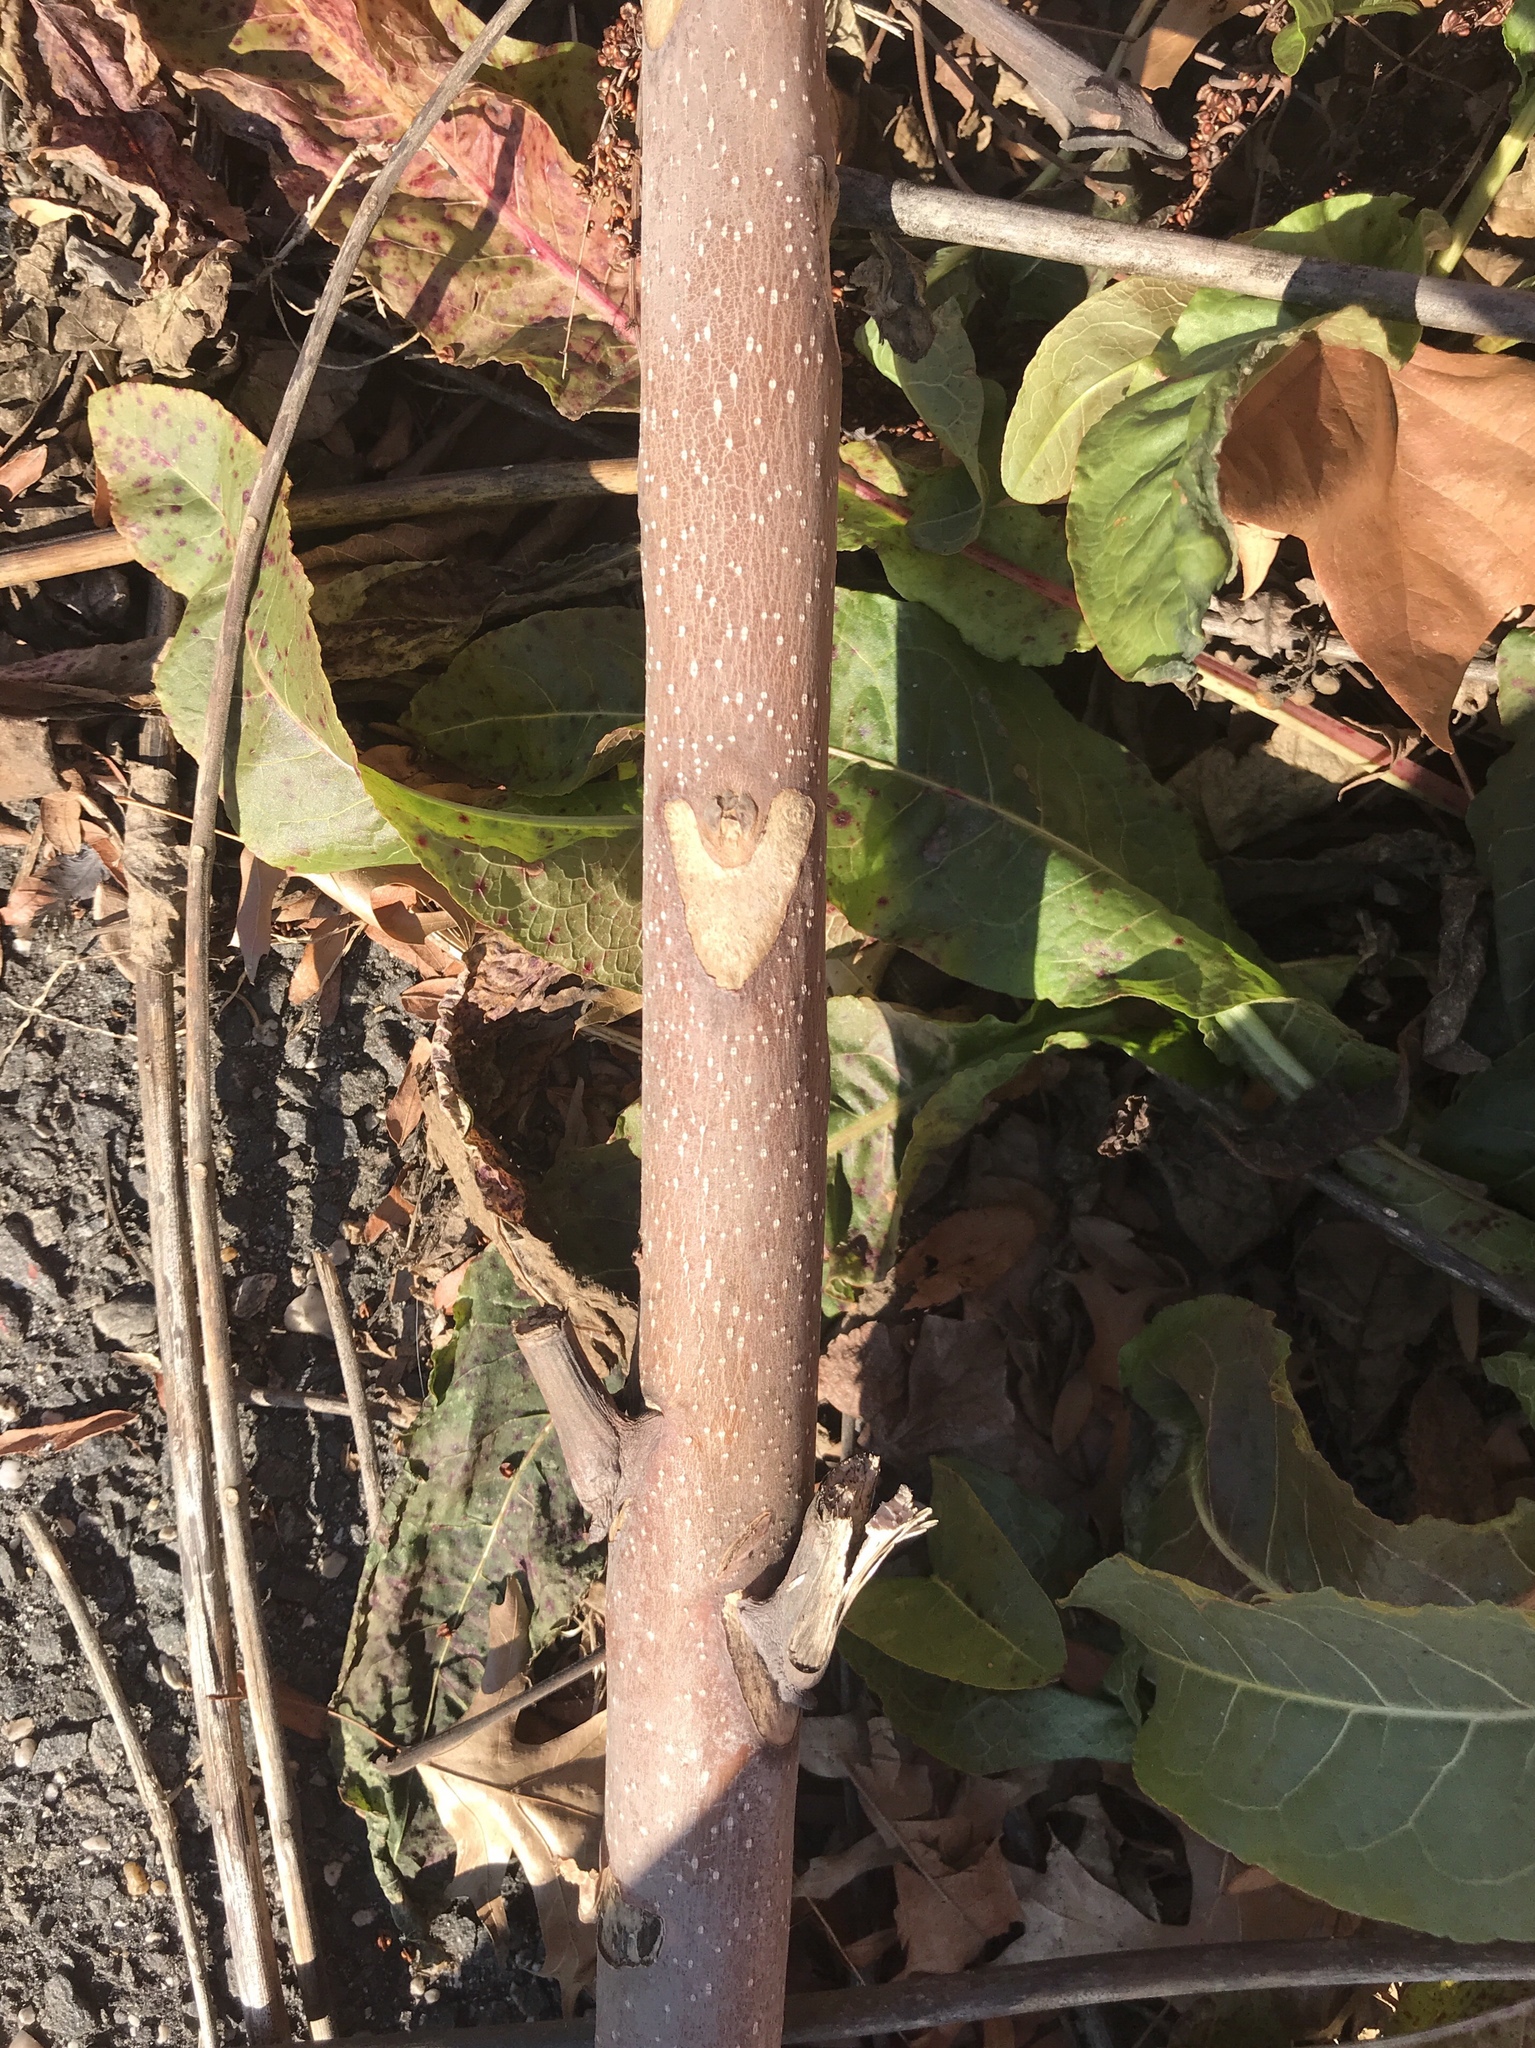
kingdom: Plantae
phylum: Tracheophyta
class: Magnoliopsida
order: Sapindales
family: Simaroubaceae
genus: Ailanthus
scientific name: Ailanthus altissima
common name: Tree-of-heaven
